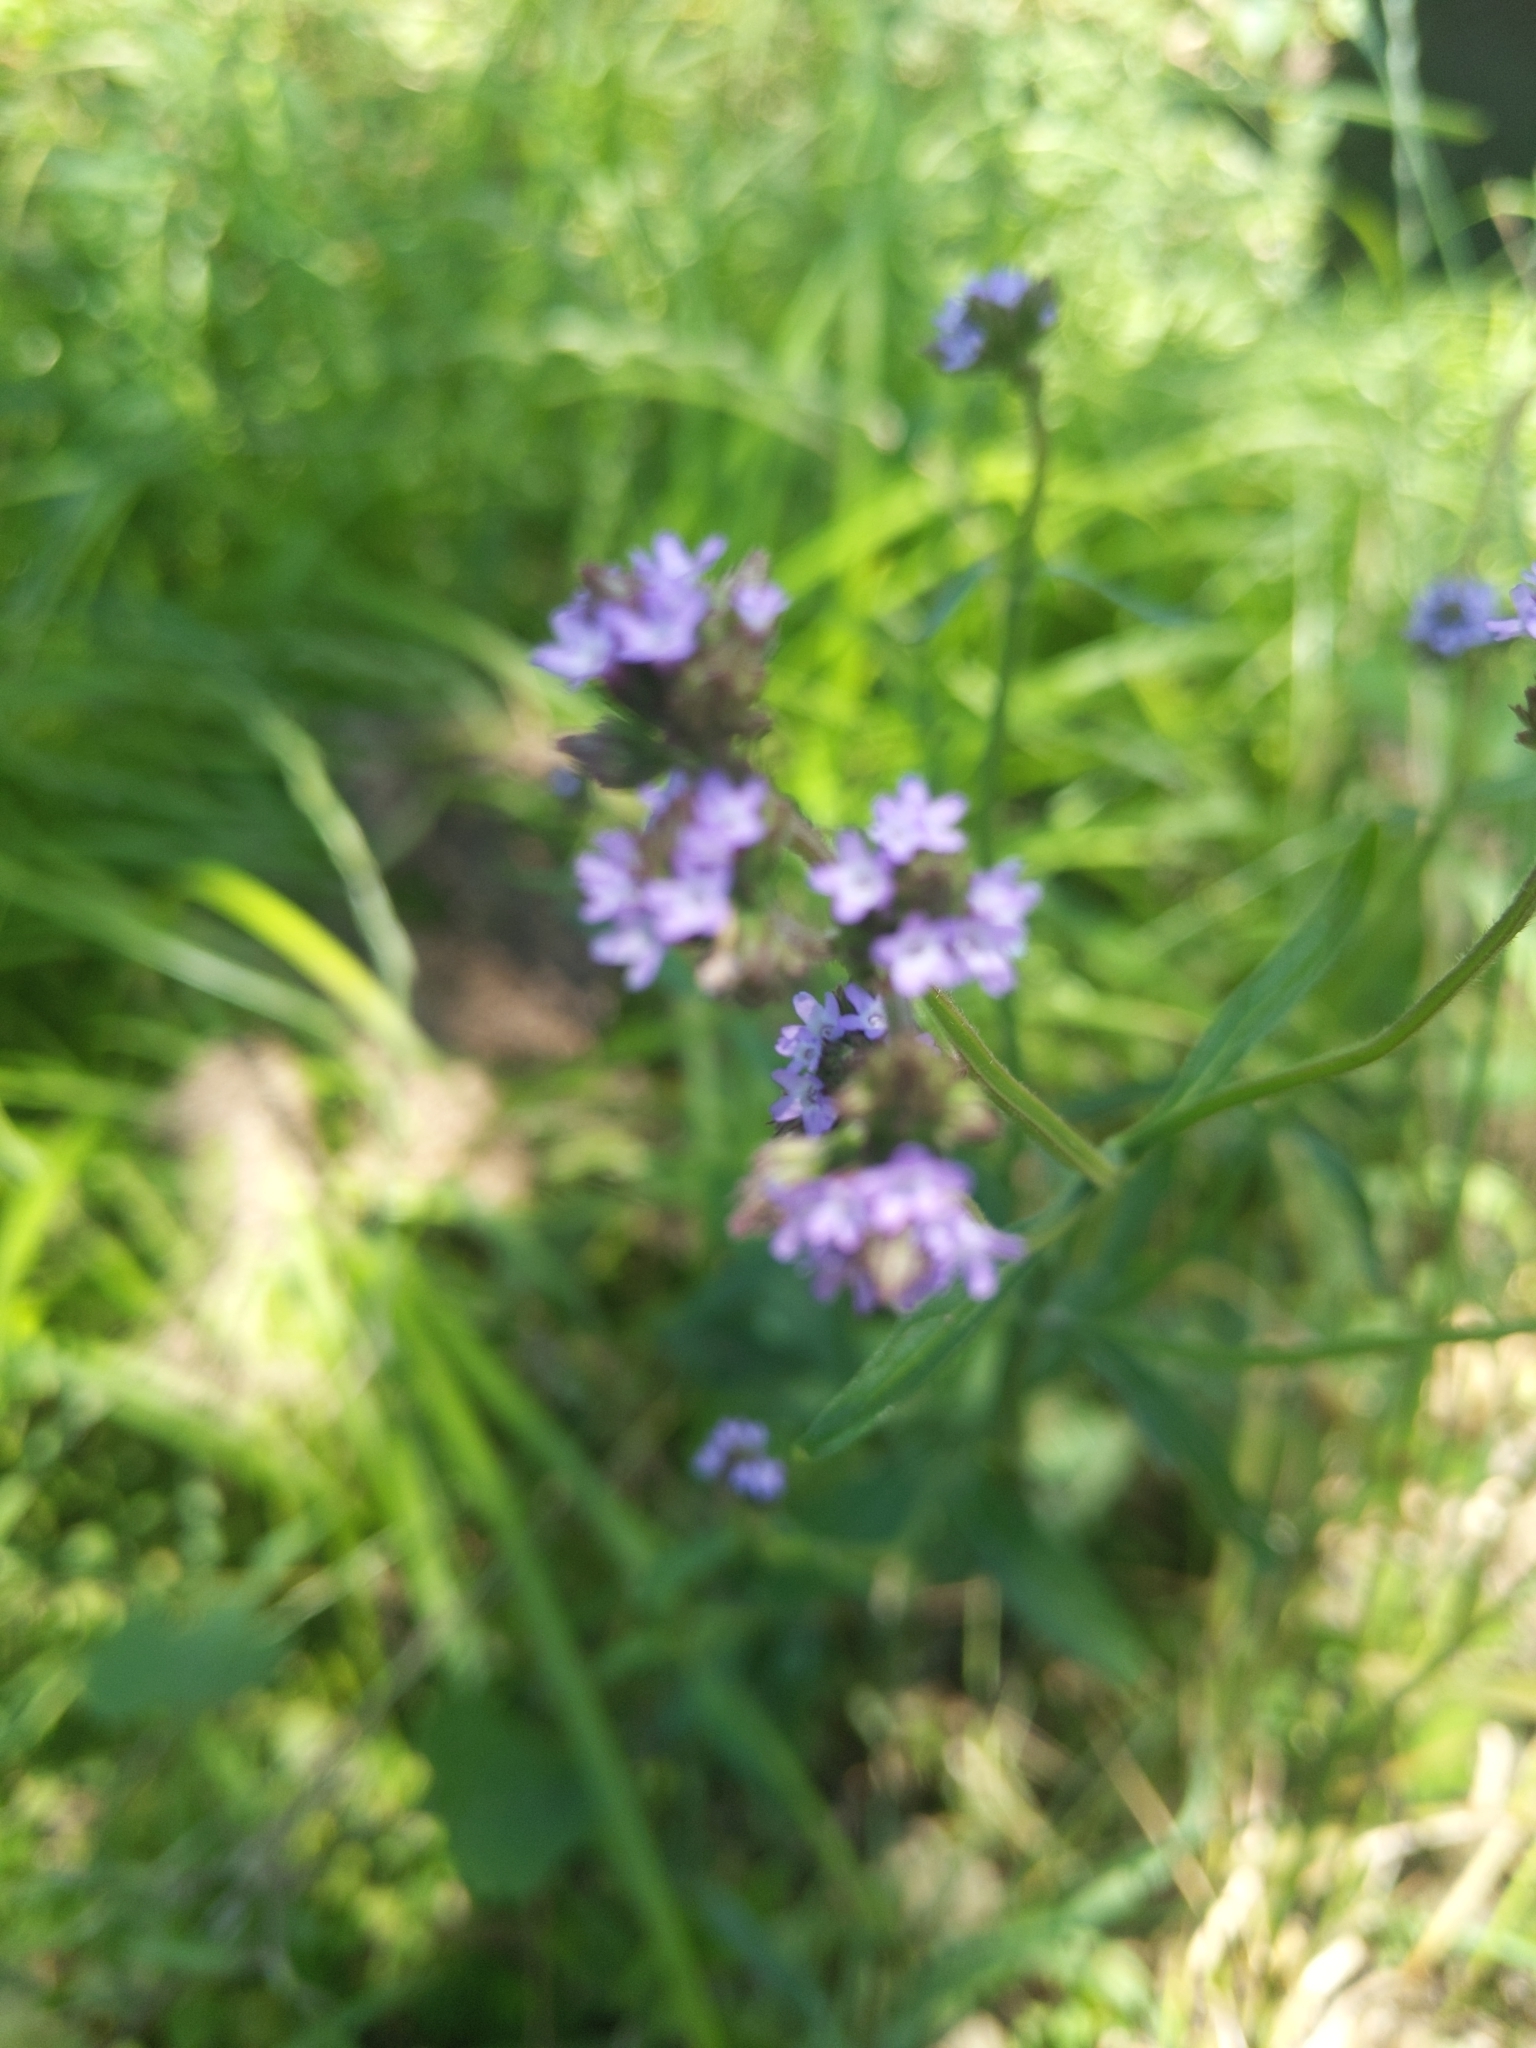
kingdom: Plantae
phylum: Tracheophyta
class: Magnoliopsida
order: Lamiales
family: Verbenaceae
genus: Verbena
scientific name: Verbena brasiliensis
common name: Brazilian vervain
